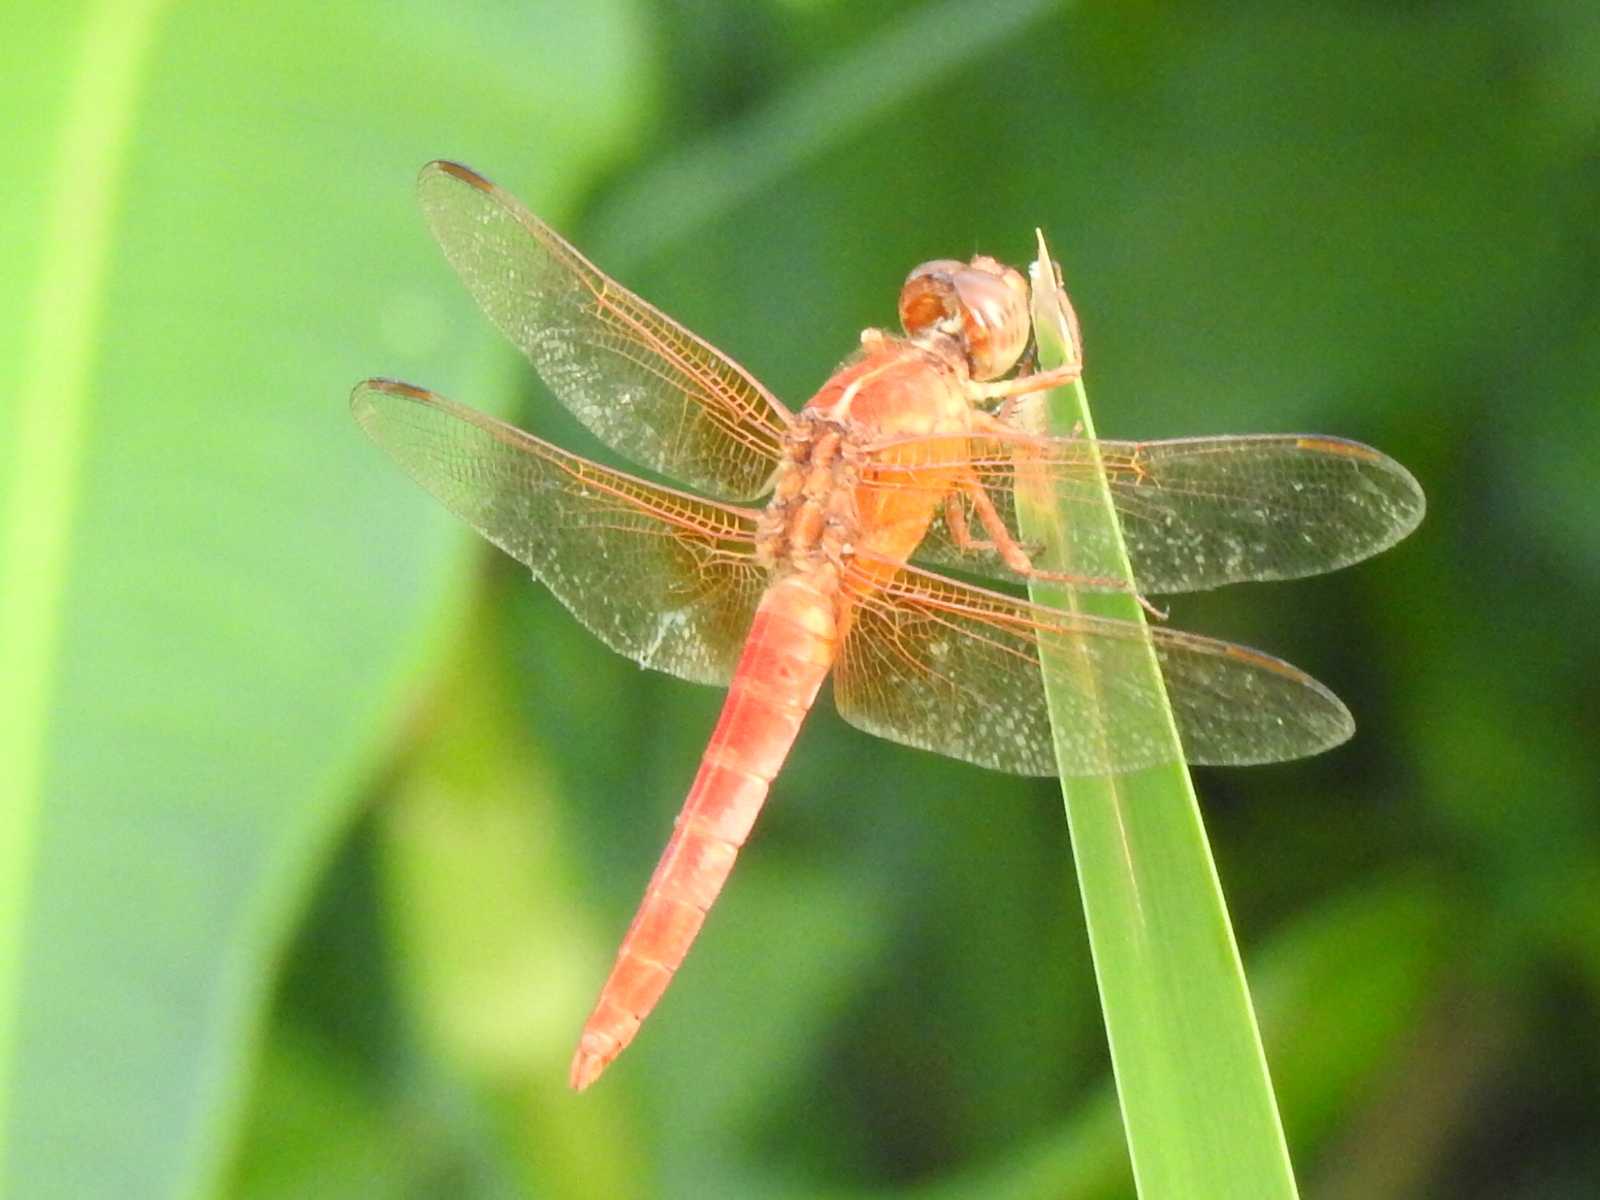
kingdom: Animalia
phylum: Arthropoda
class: Insecta
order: Odonata
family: Libellulidae
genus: Libellula
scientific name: Libellula croceipennis
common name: Neon skimmer
